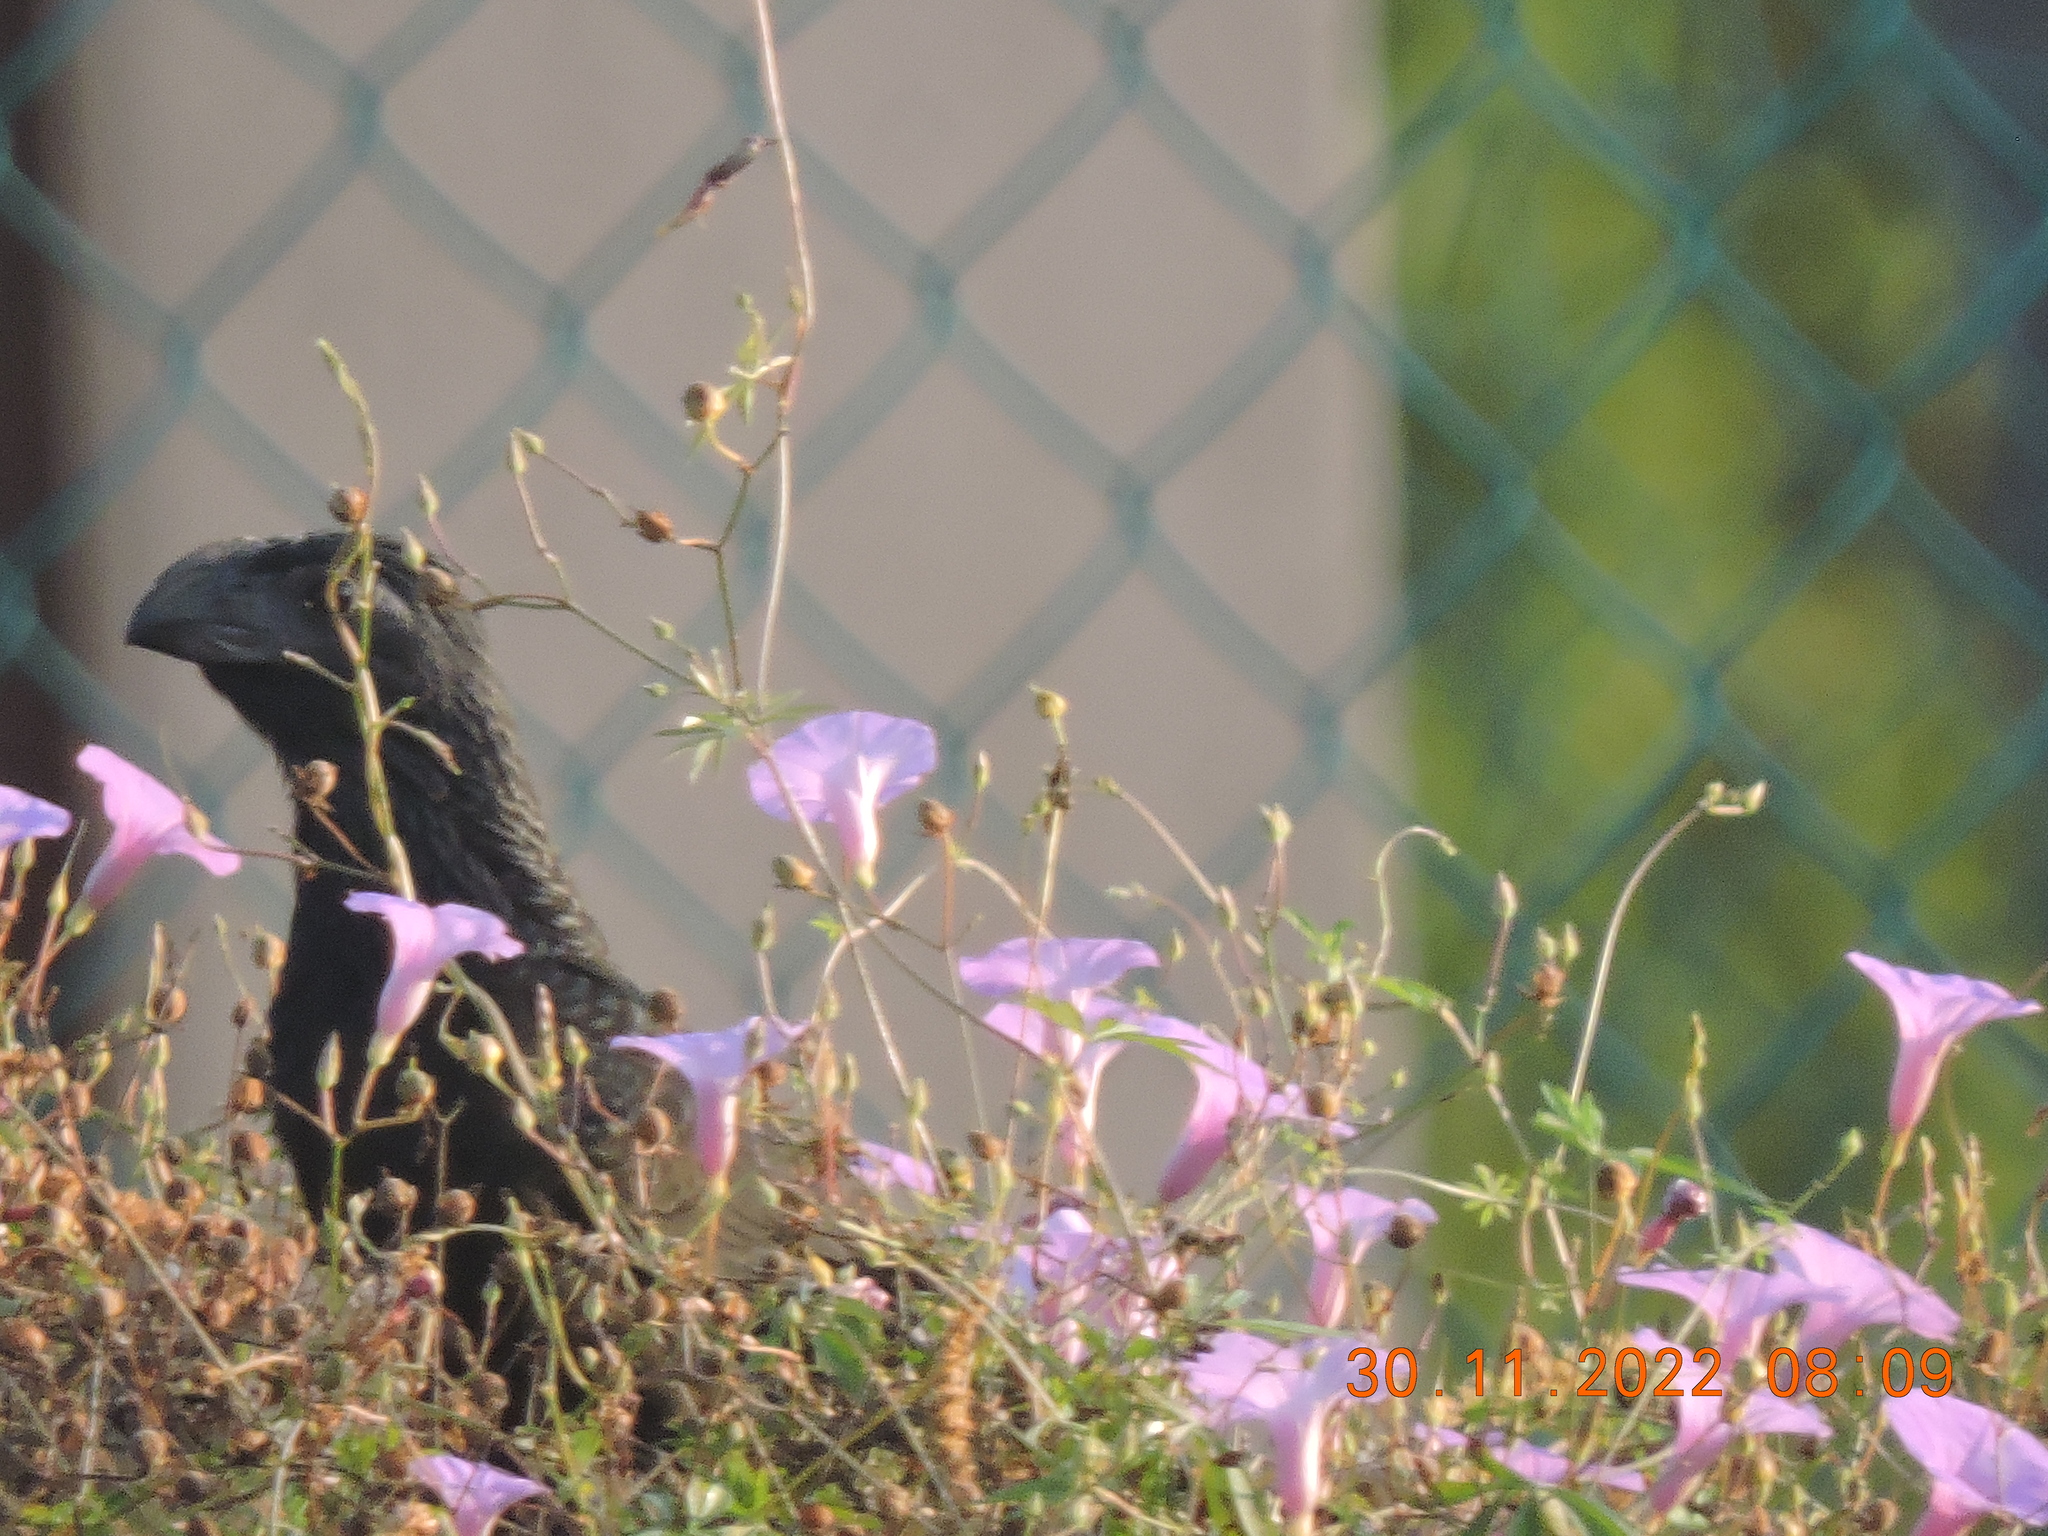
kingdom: Animalia
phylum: Chordata
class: Aves
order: Cuculiformes
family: Cuculidae
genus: Crotophaga
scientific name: Crotophaga sulcirostris
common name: Groove-billed ani
